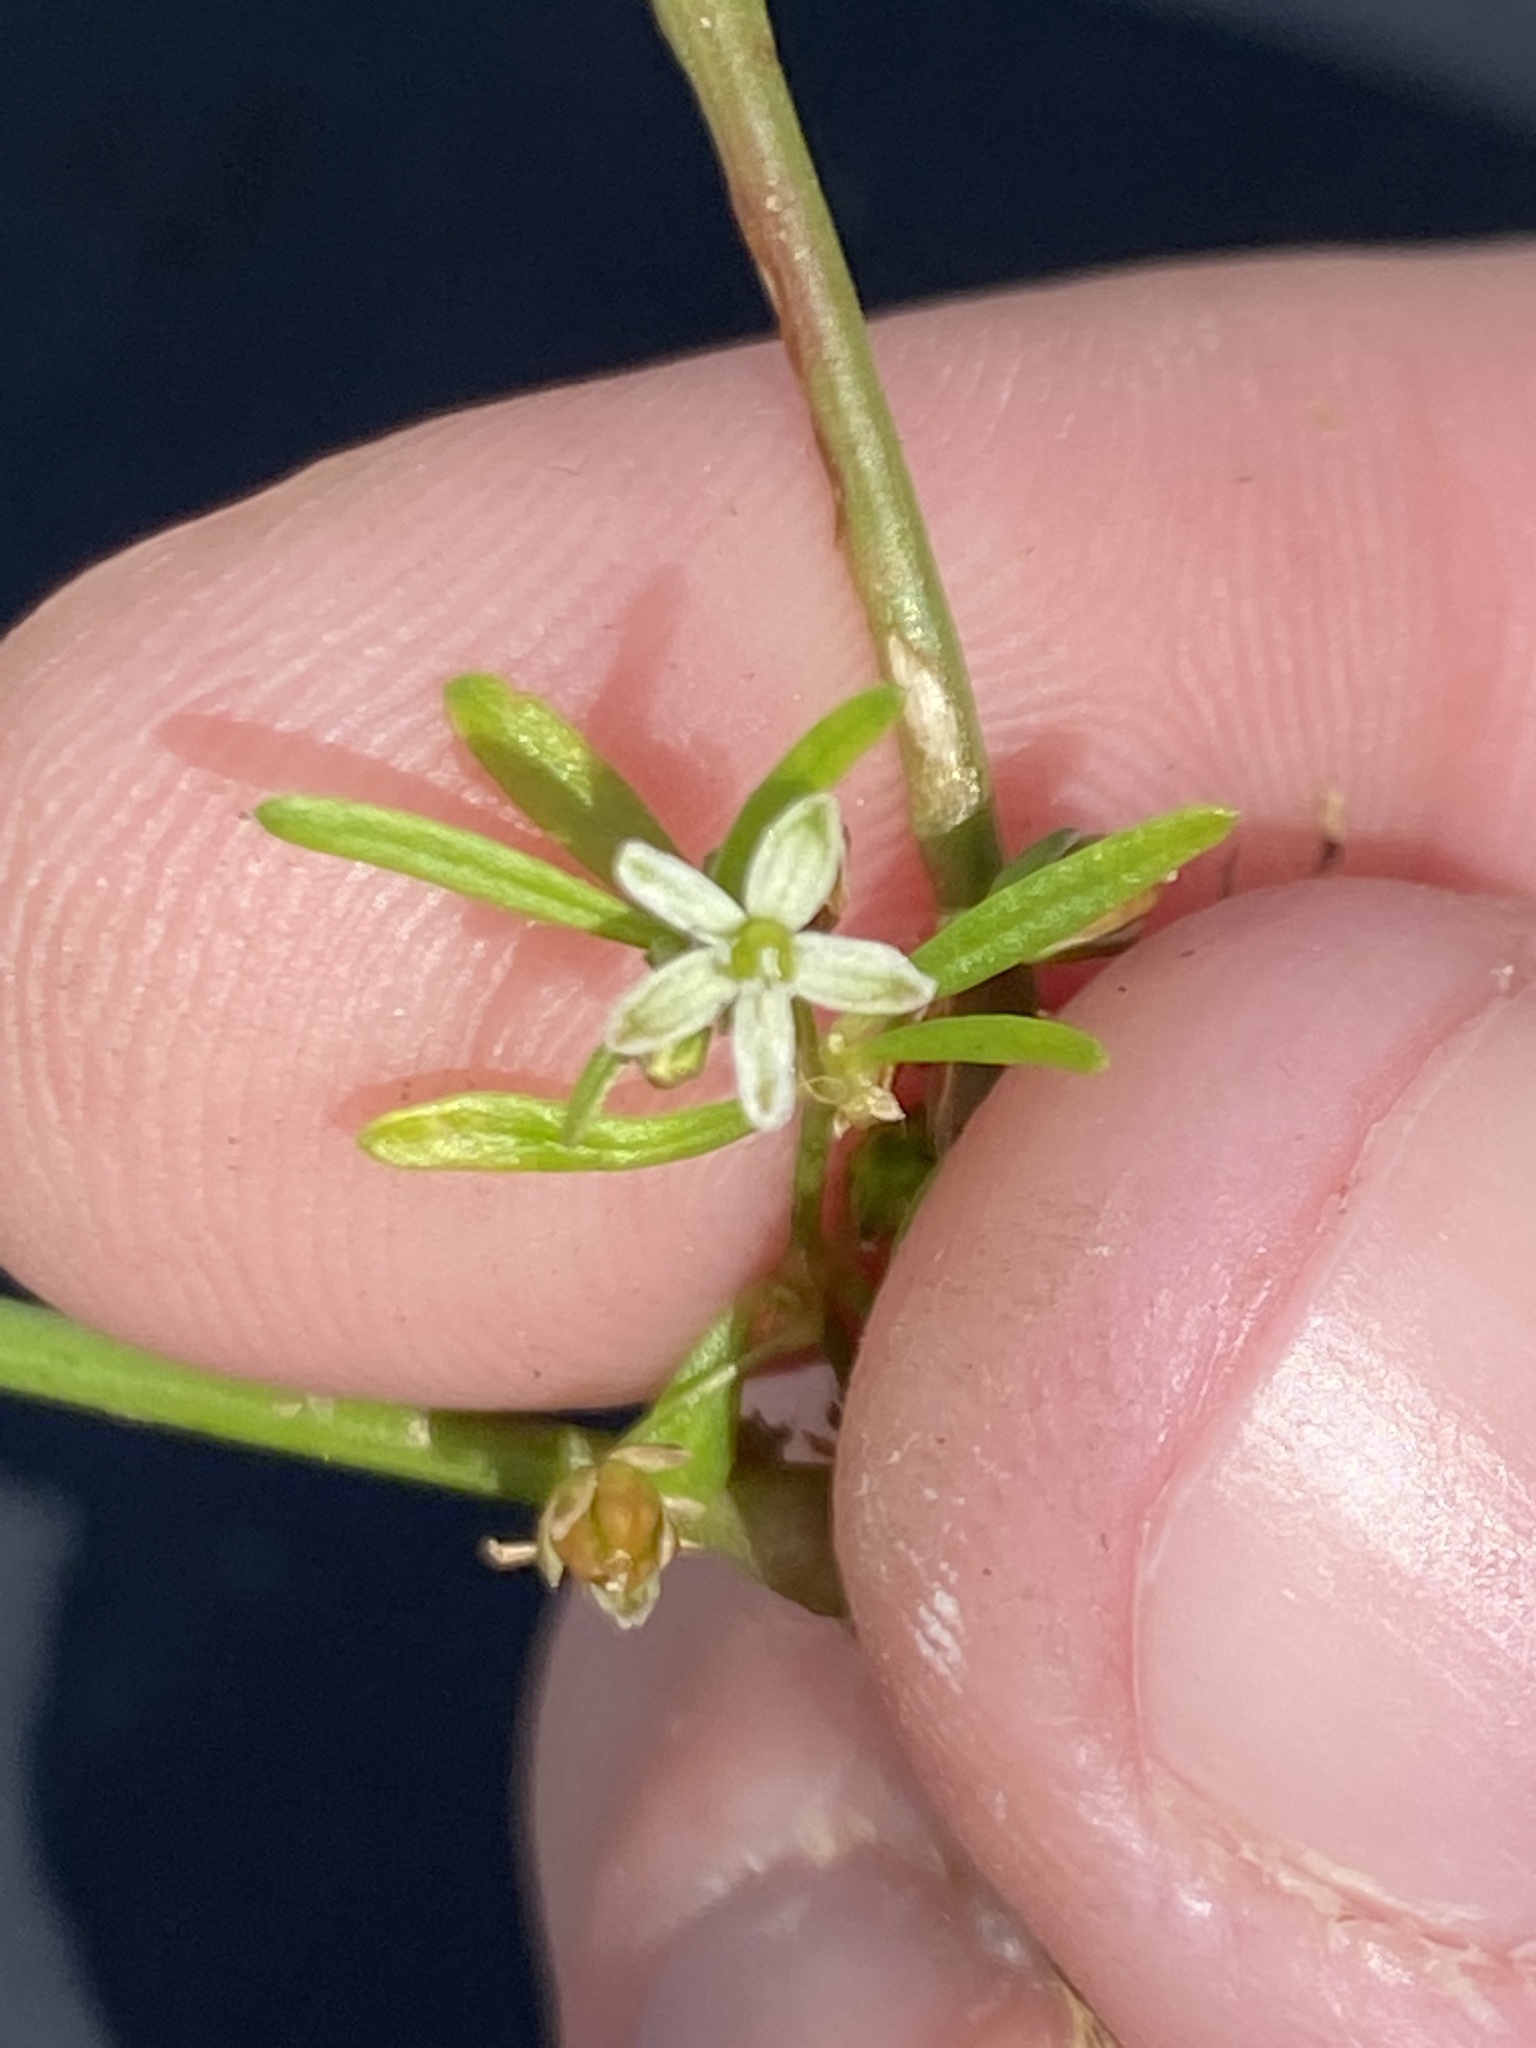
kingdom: Plantae
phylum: Tracheophyta
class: Magnoliopsida
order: Caryophyllales
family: Molluginaceae
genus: Mollugo
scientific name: Mollugo verticillata
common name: Green carpetweed
